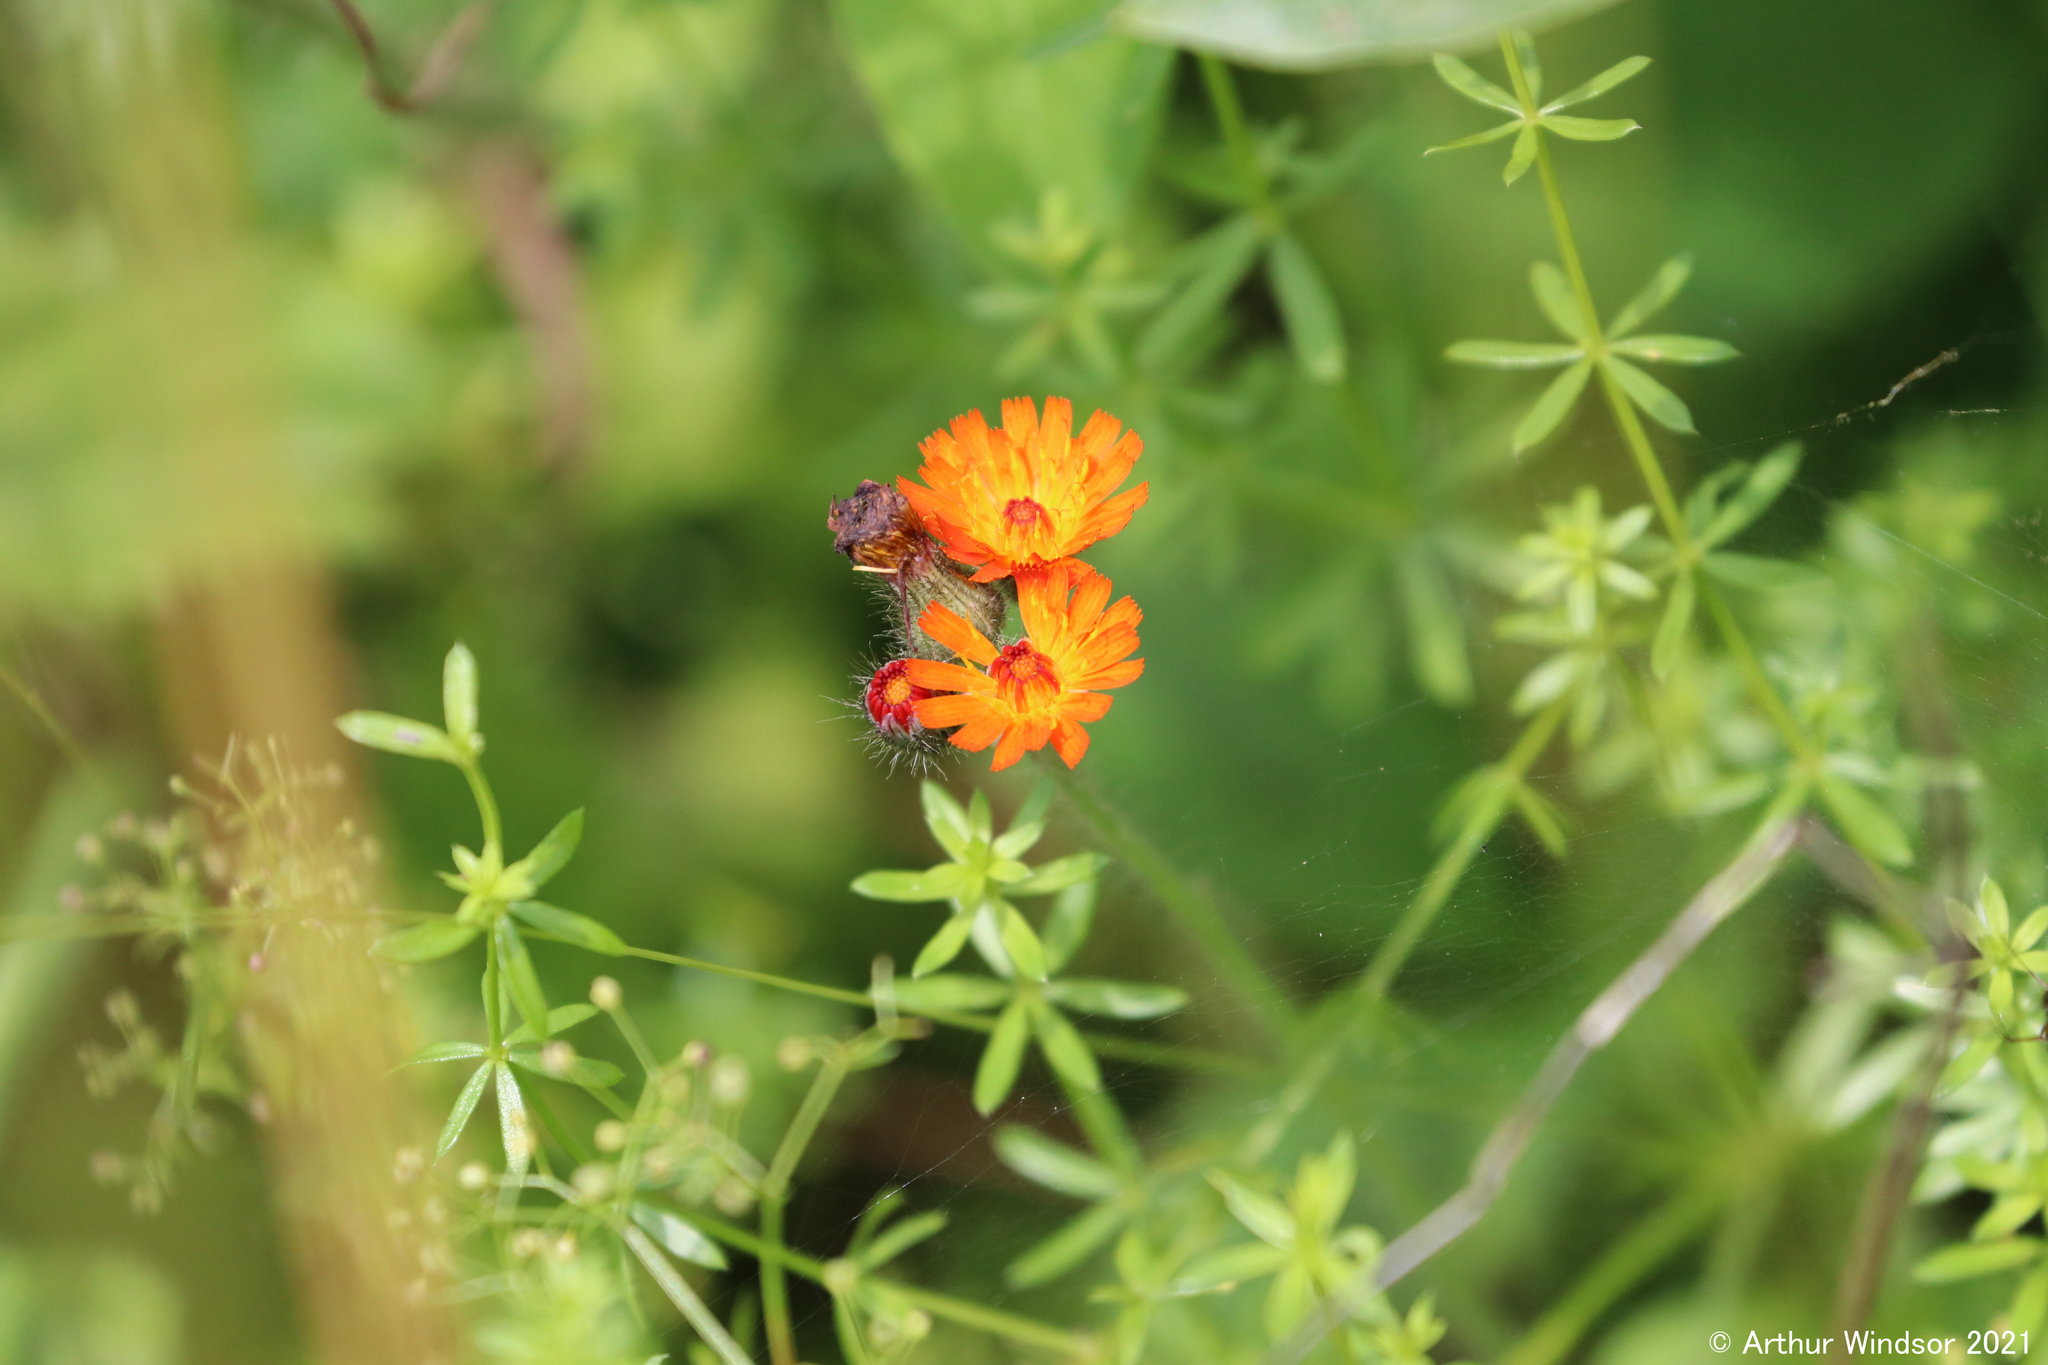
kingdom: Plantae
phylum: Tracheophyta
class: Magnoliopsida
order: Asterales
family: Asteraceae
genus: Pilosella
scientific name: Pilosella aurantiaca
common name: Fox-and-cubs
